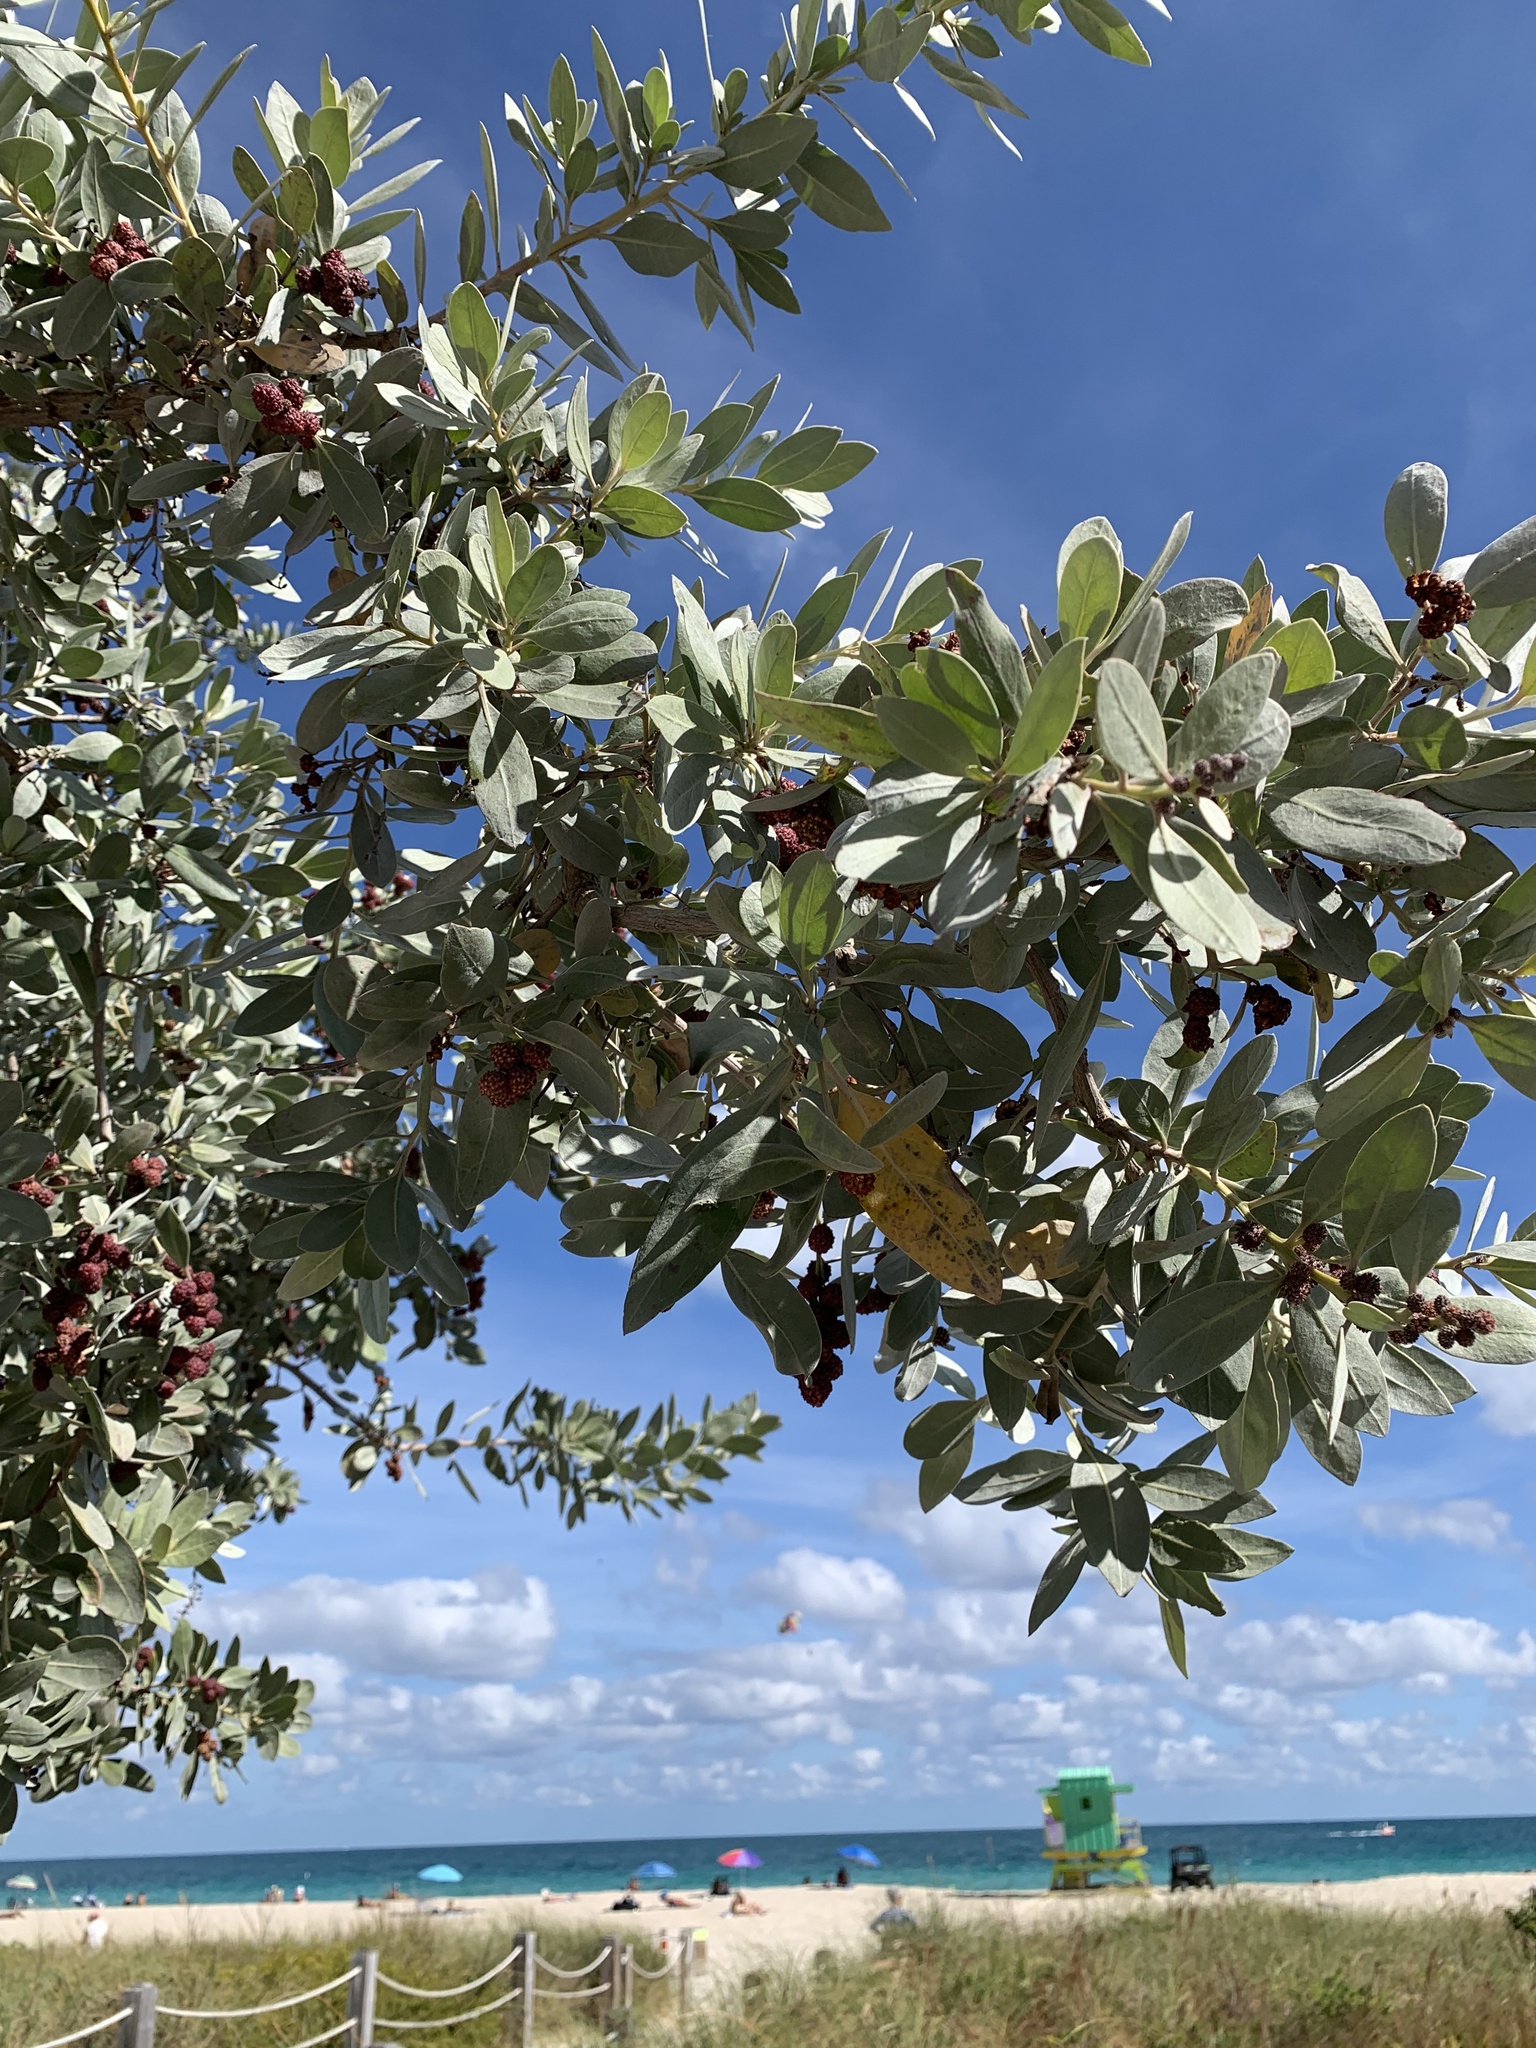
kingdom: Plantae
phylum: Tracheophyta
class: Magnoliopsida
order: Myrtales
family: Combretaceae
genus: Conocarpus
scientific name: Conocarpus erectus
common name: Button mangrove
